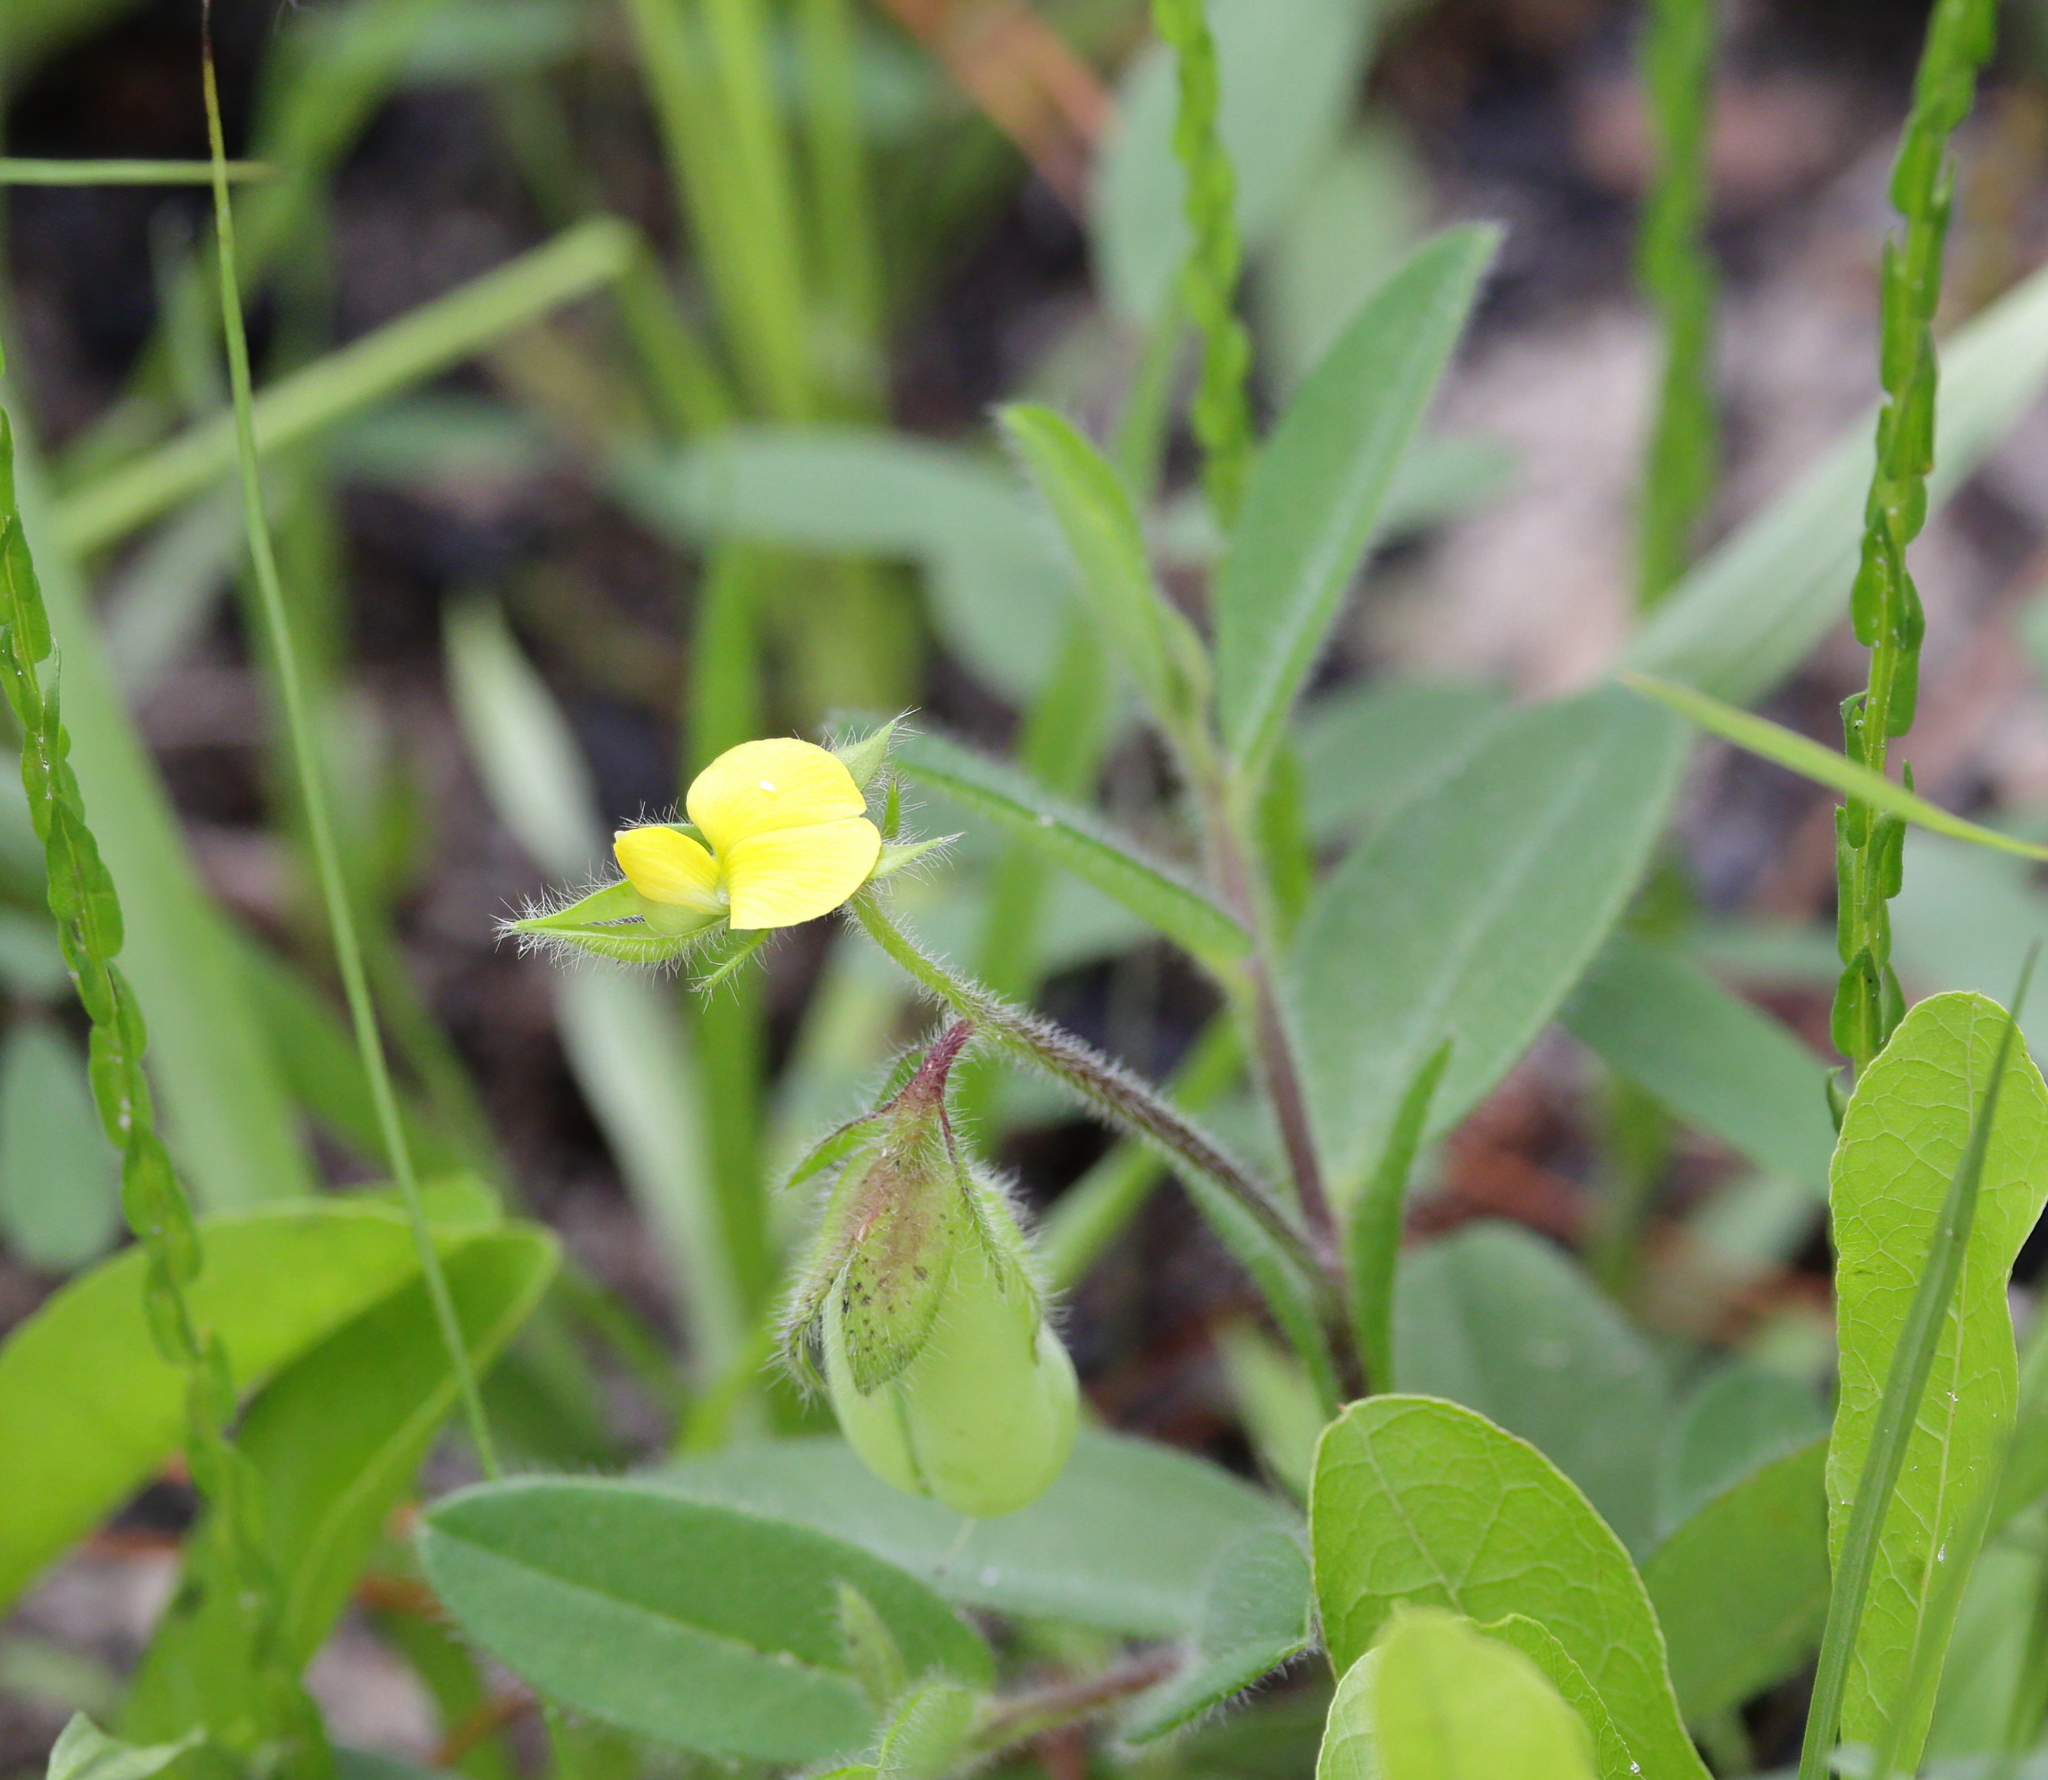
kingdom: Plantae
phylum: Tracheophyta
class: Magnoliopsida
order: Fabales
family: Fabaceae
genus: Crotalaria
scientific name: Crotalaria rotundifolia
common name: Prostrate rattlebox
